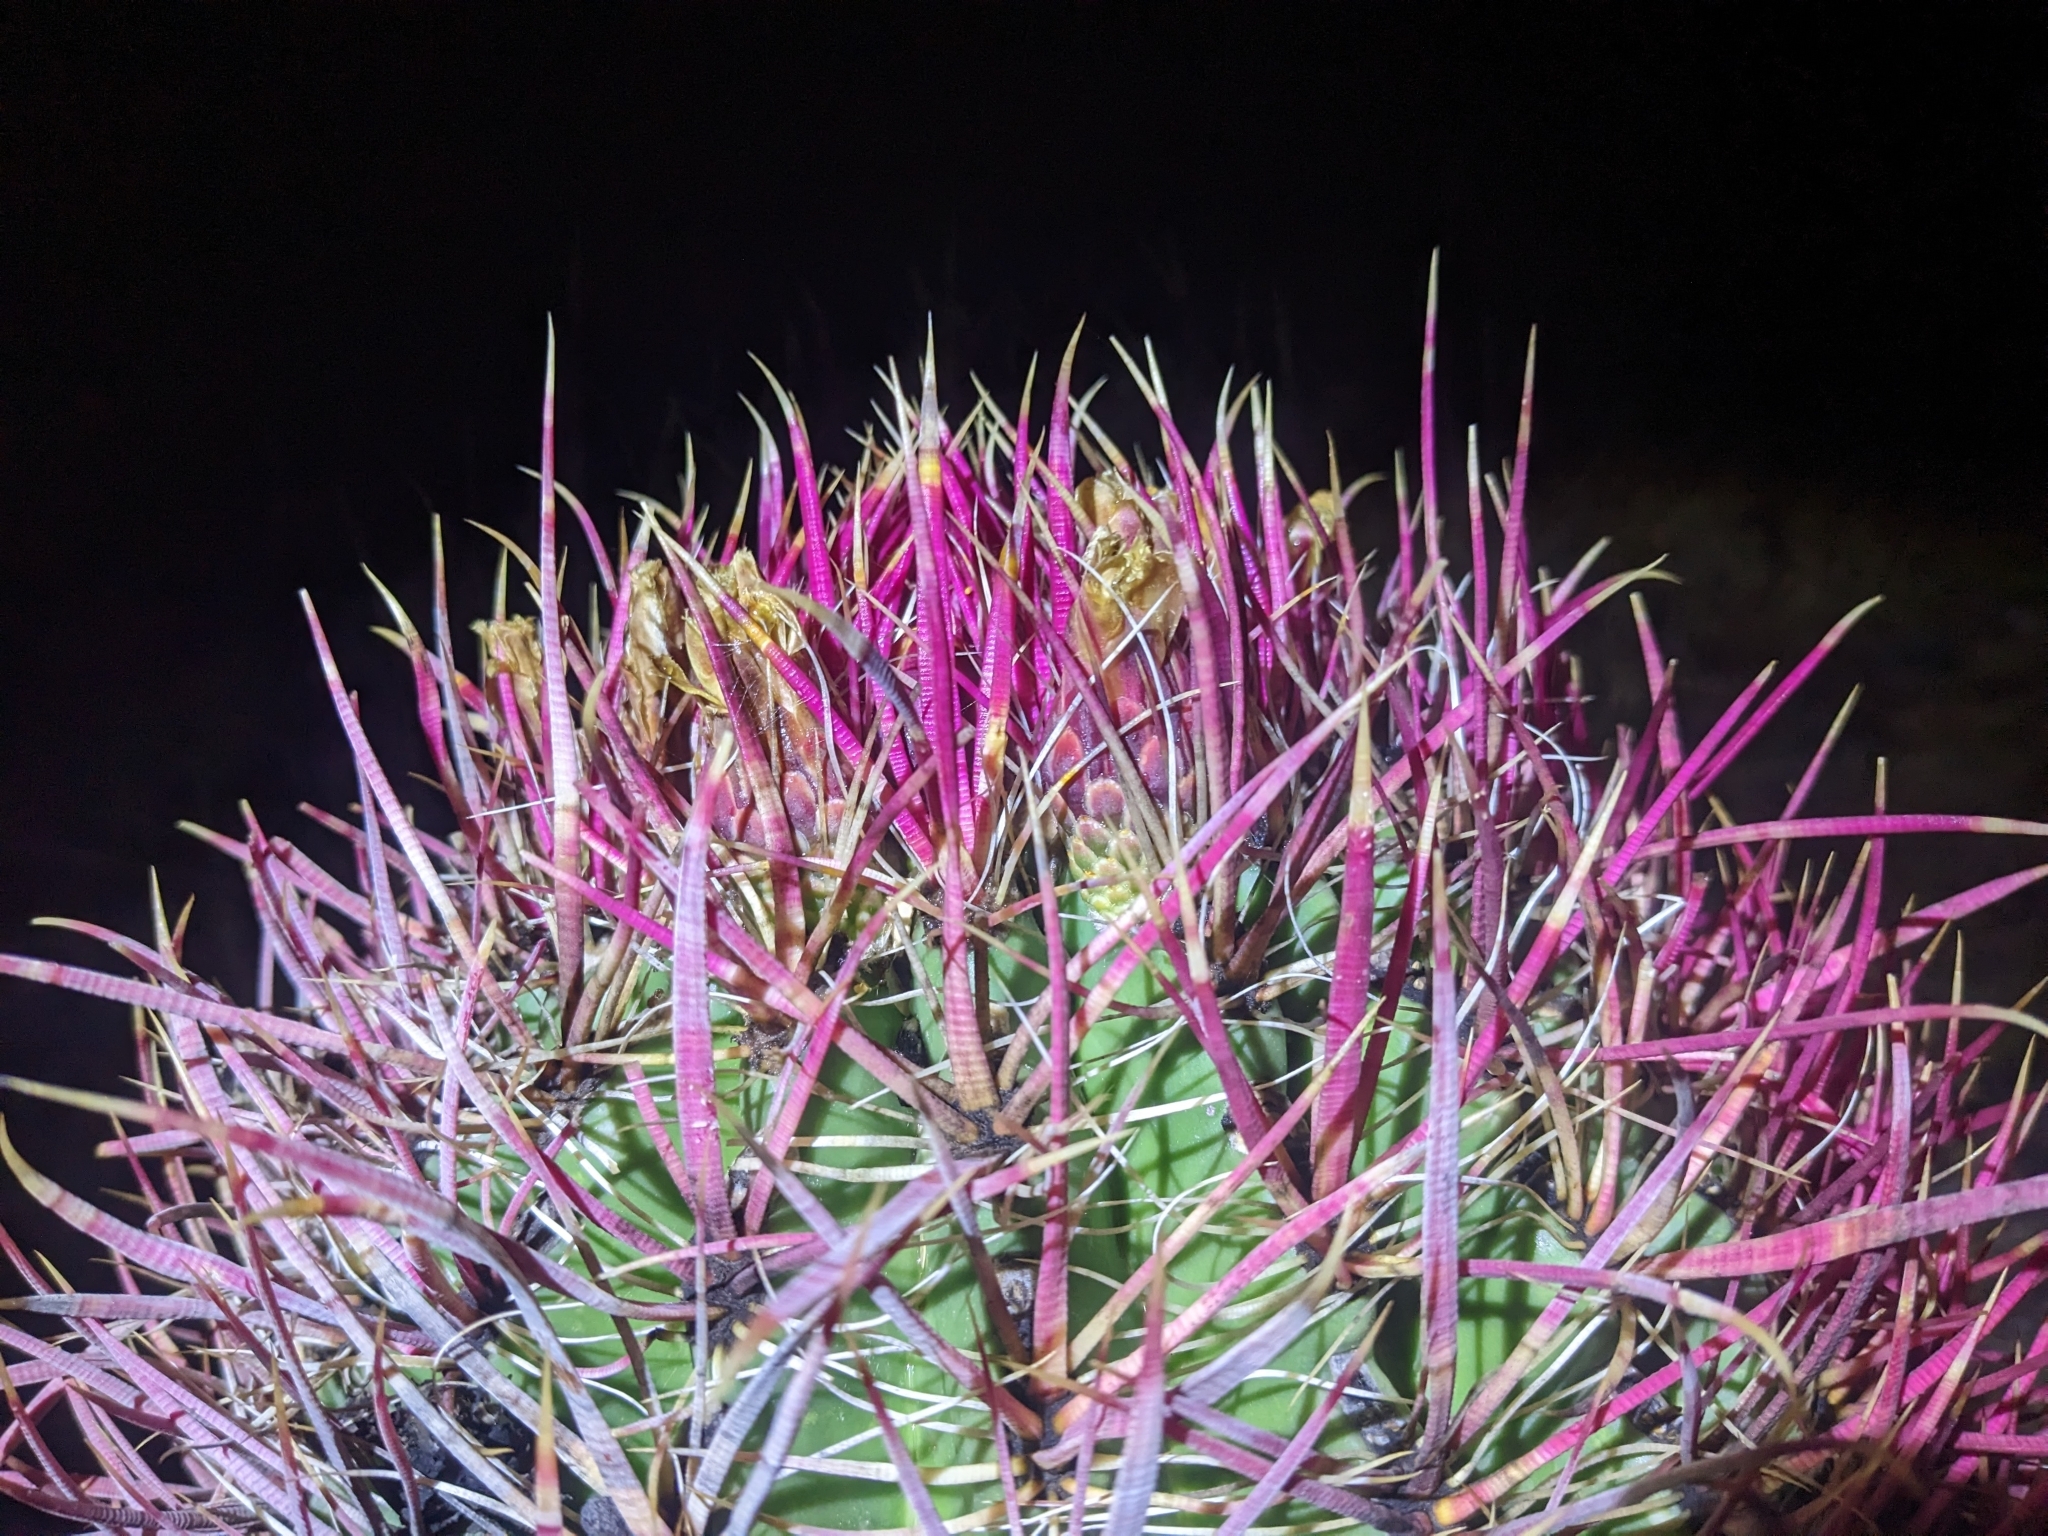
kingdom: Plantae
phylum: Tracheophyta
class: Magnoliopsida
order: Caryophyllales
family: Cactaceae
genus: Ferocactus
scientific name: Ferocactus cylindraceus
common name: California barrel cactus
